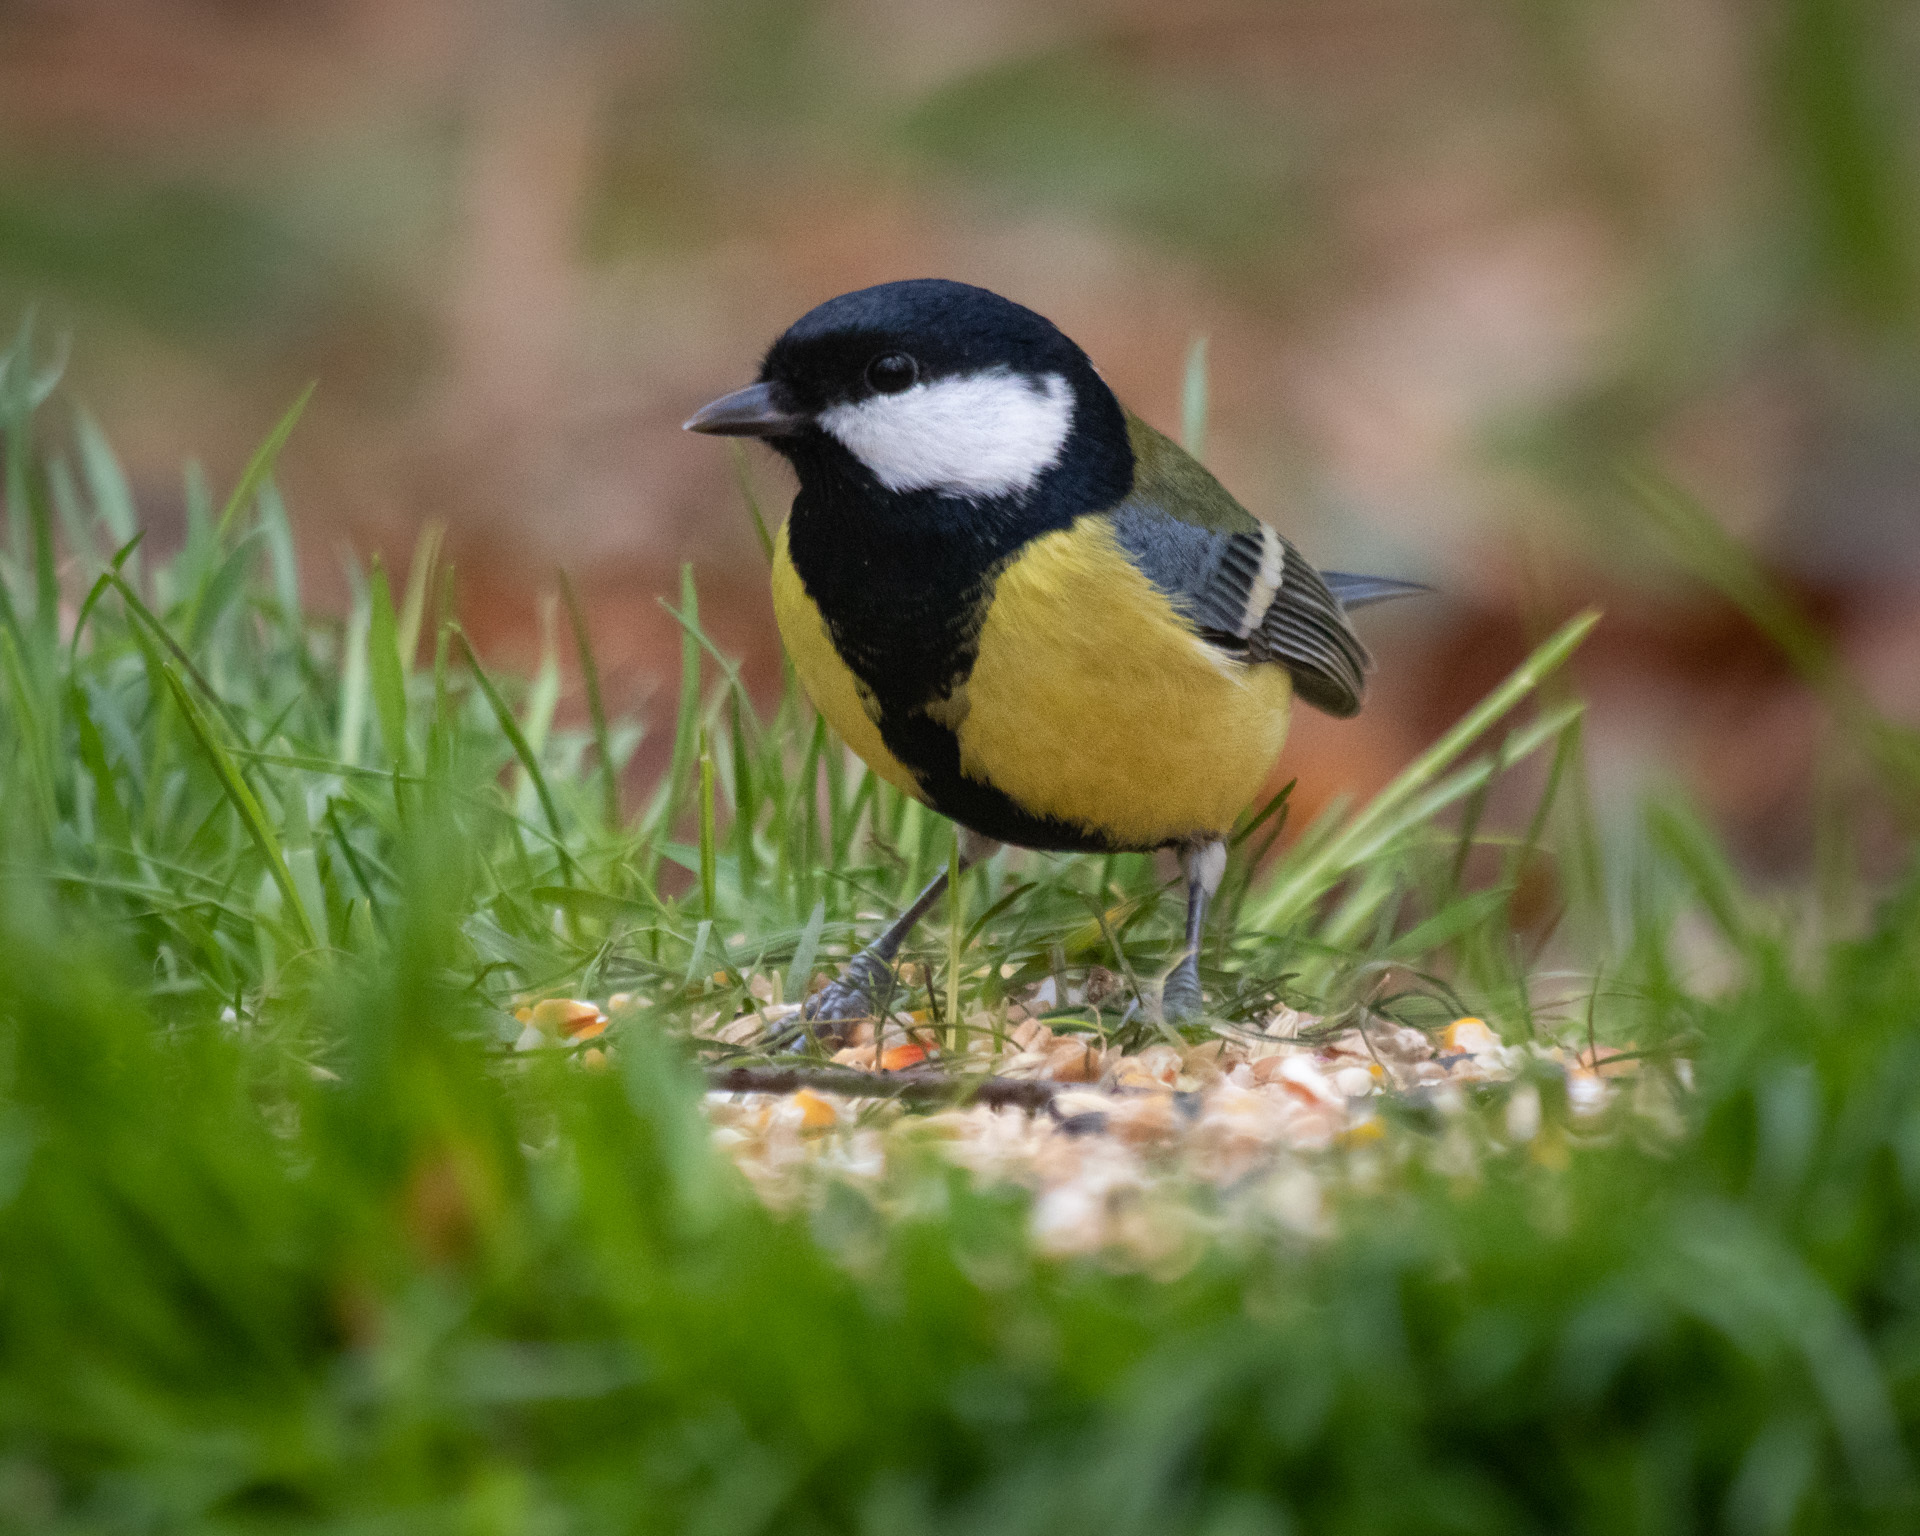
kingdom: Animalia
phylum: Chordata
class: Aves
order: Passeriformes
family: Paridae
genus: Parus
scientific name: Parus major
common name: Great tit
